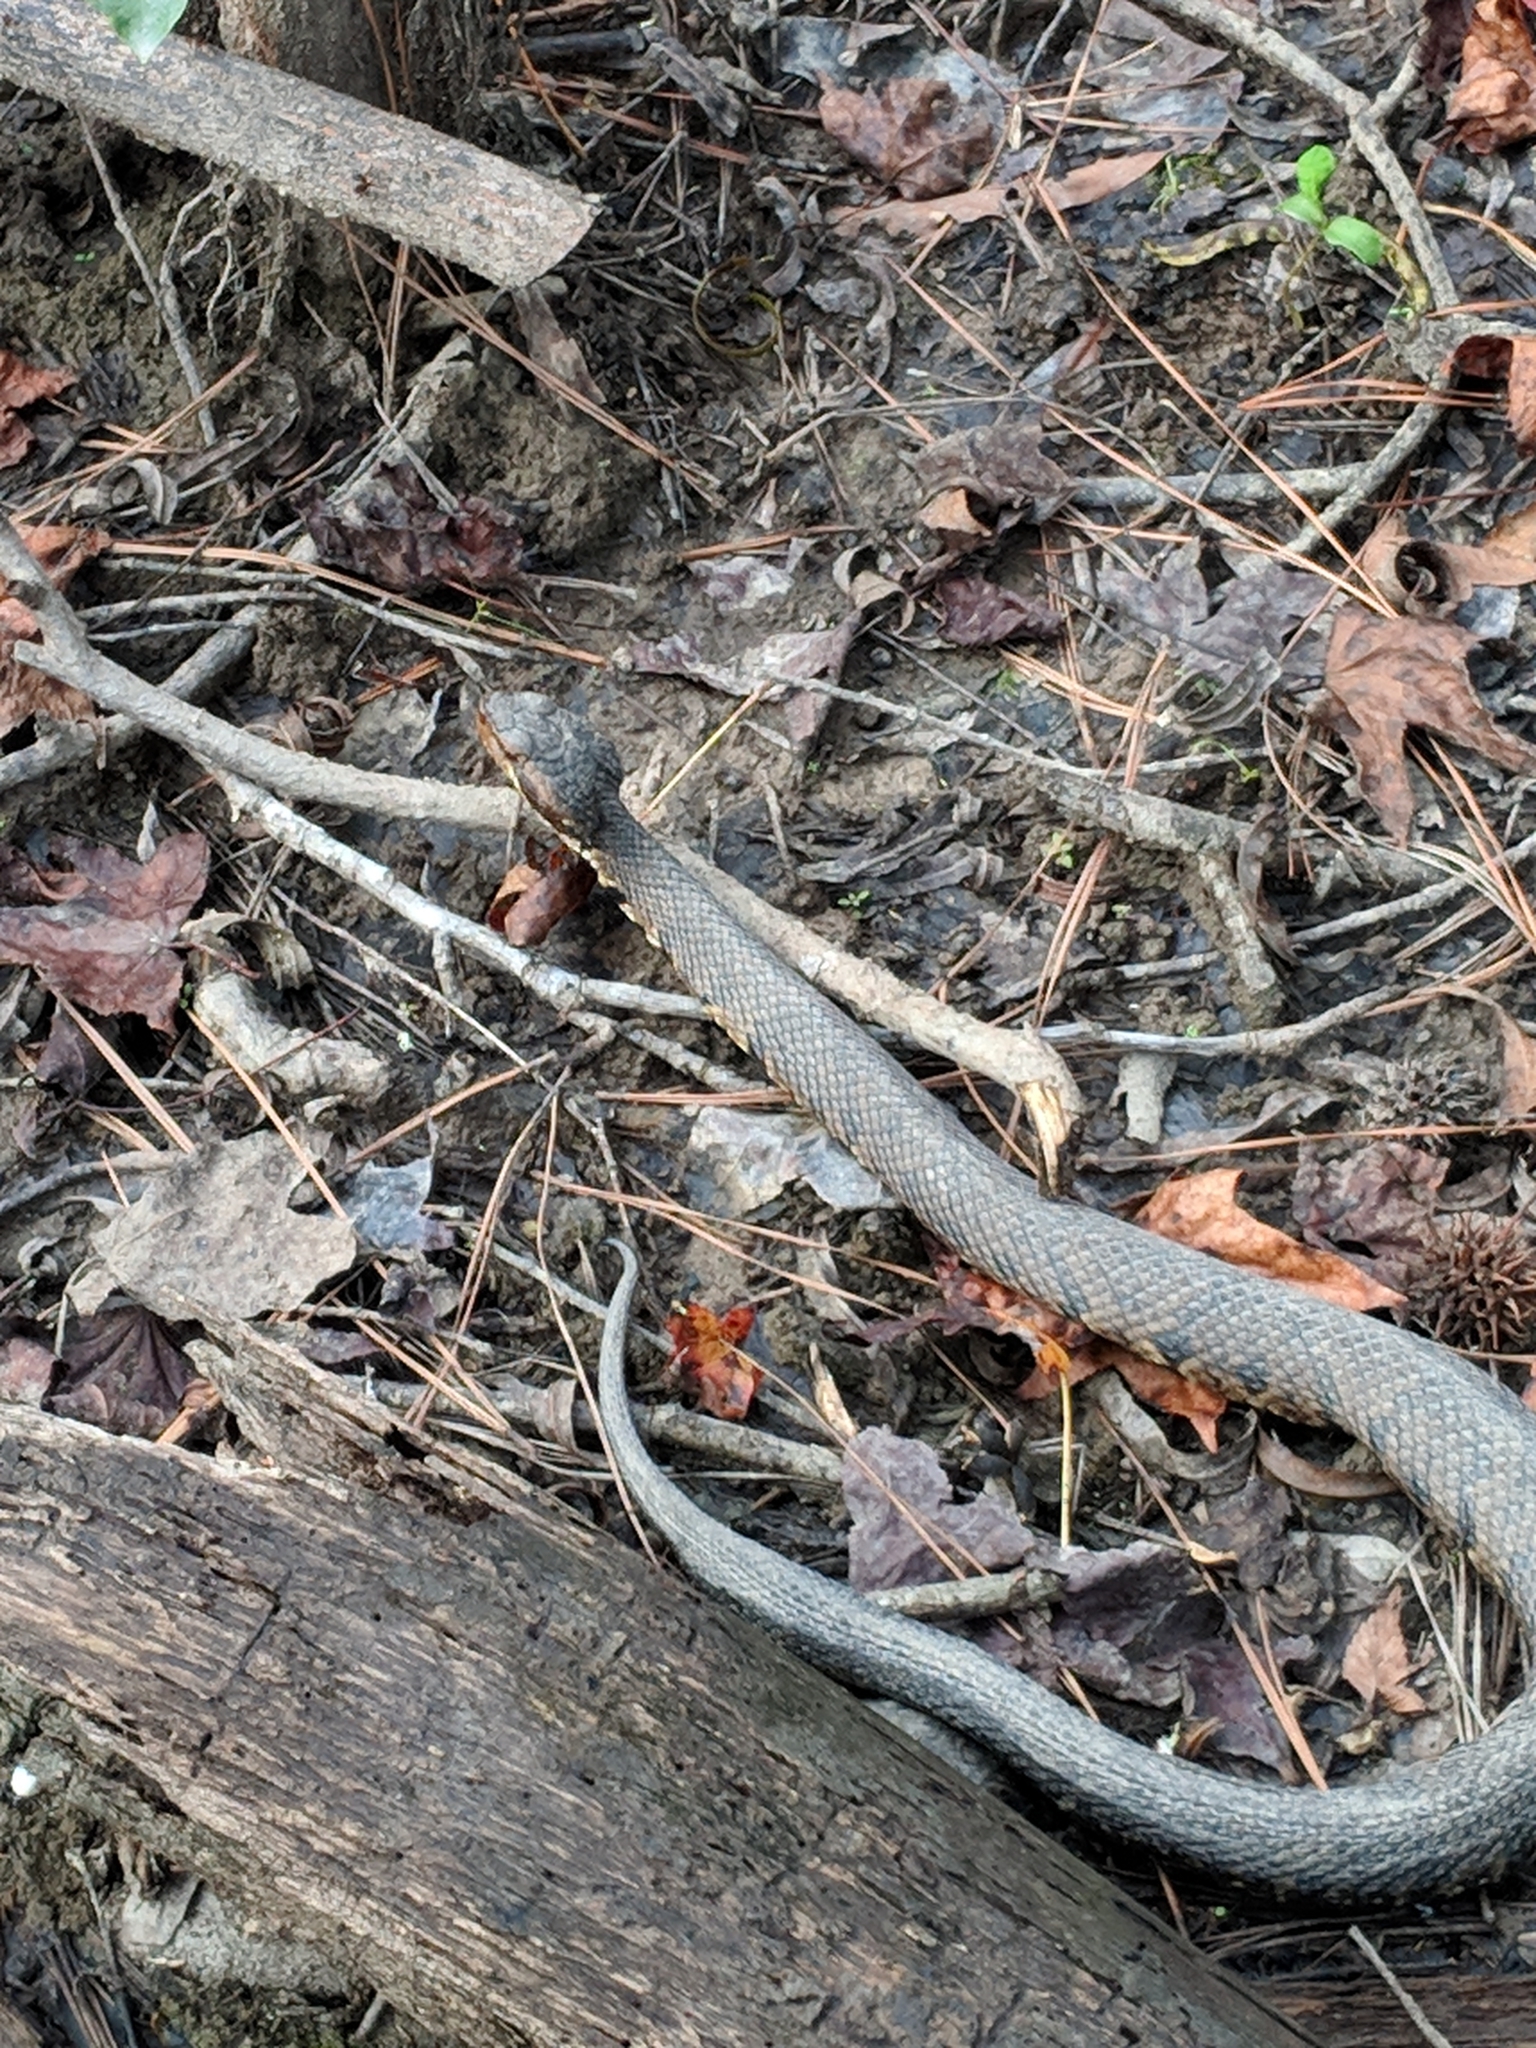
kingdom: Animalia
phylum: Chordata
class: Squamata
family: Viperidae
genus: Agkistrodon
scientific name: Agkistrodon piscivorus
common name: Cottonmouth
